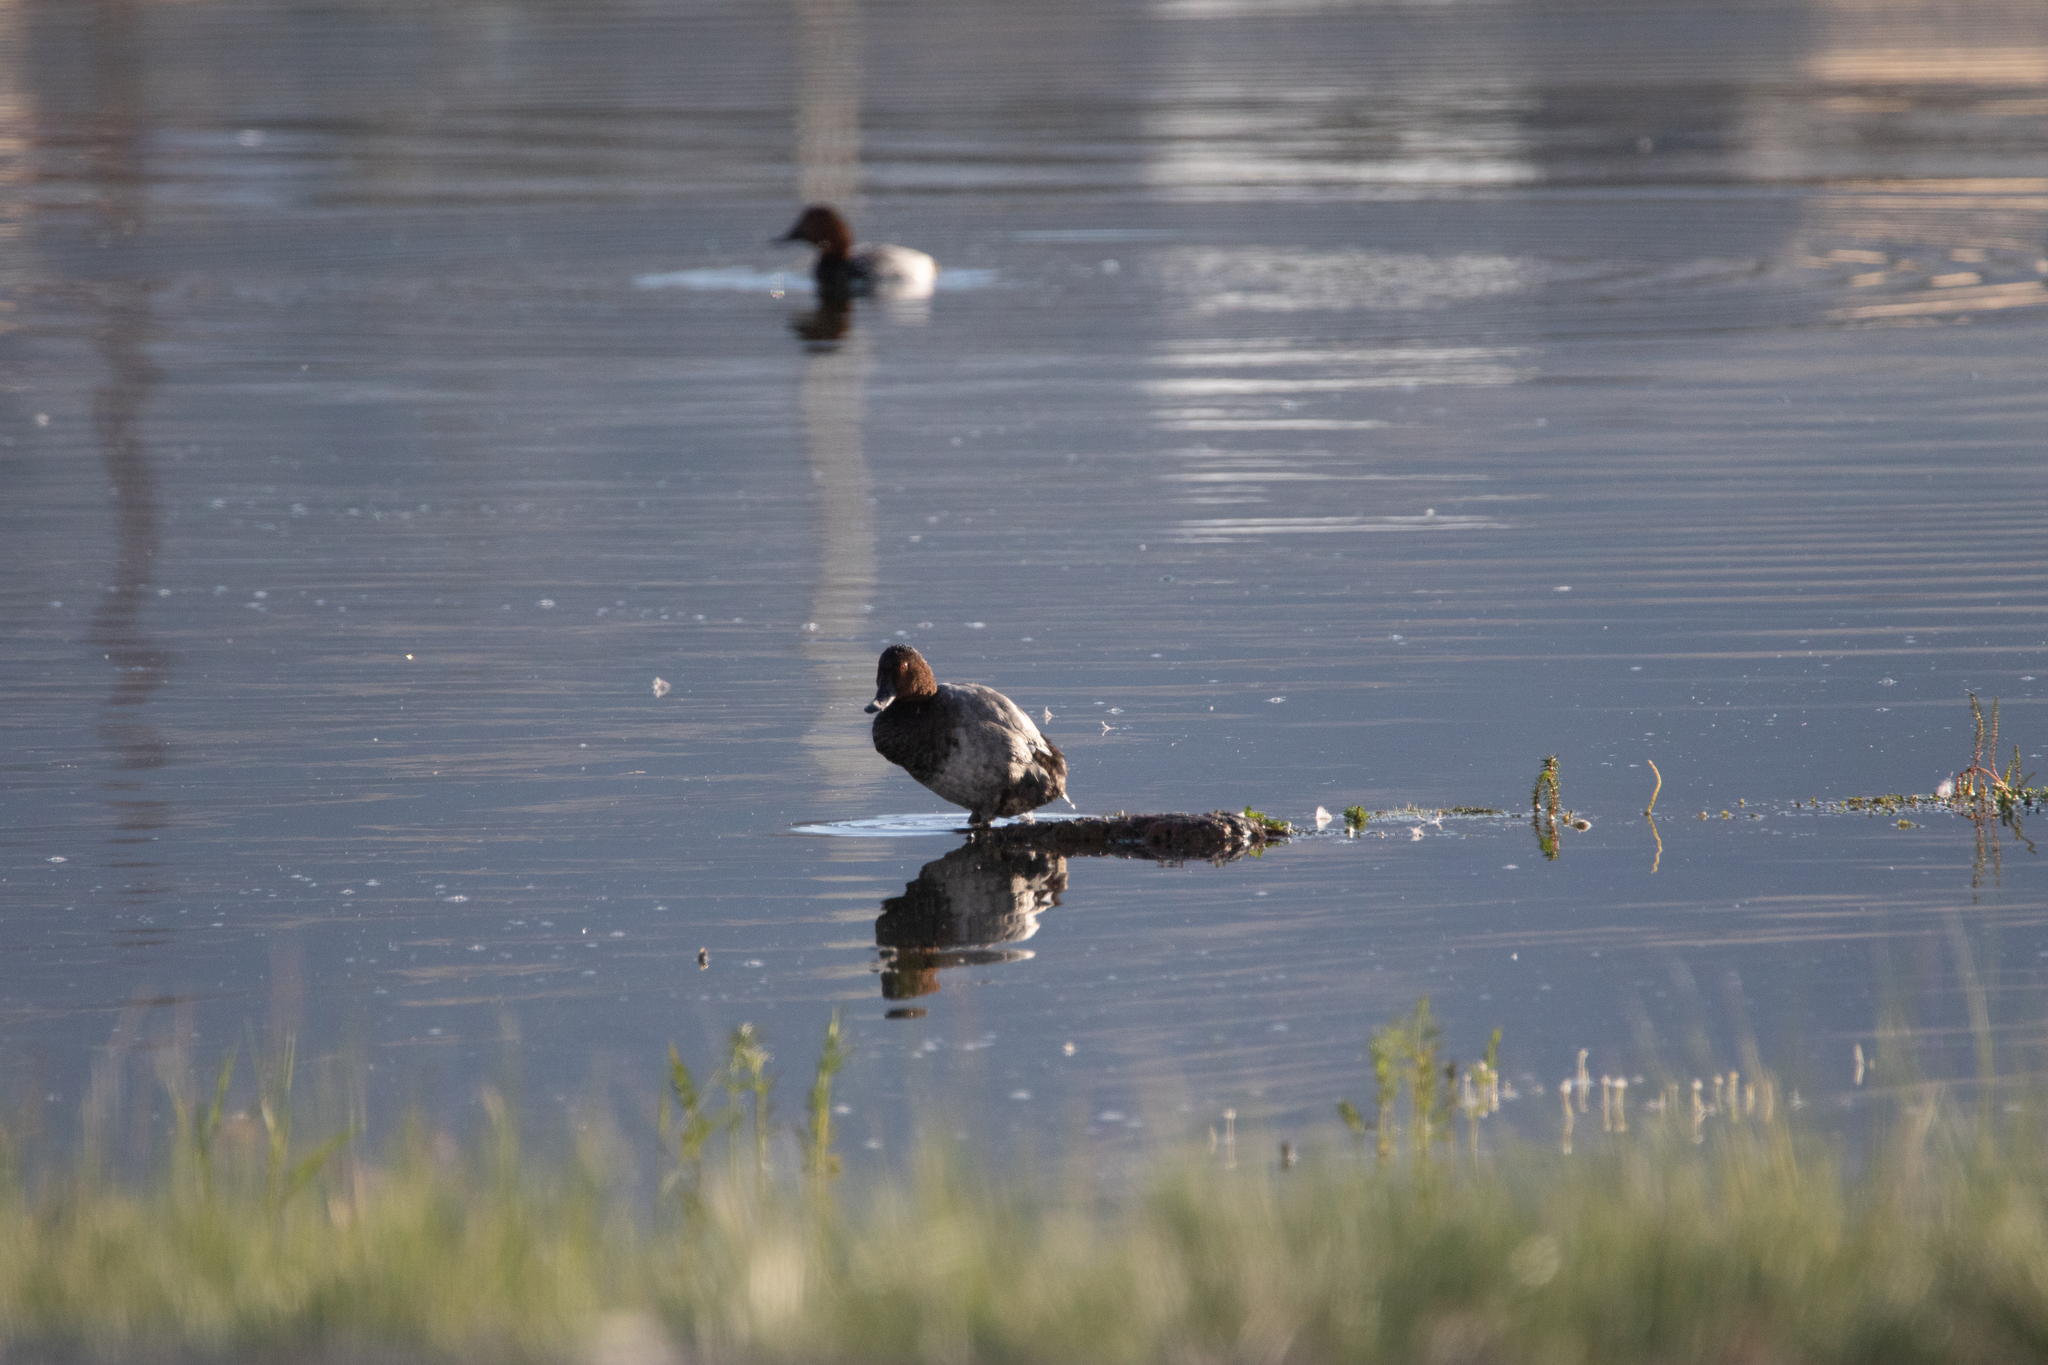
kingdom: Animalia
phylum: Chordata
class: Aves
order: Anseriformes
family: Anatidae
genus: Aythya
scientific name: Aythya ferina
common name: Common pochard
